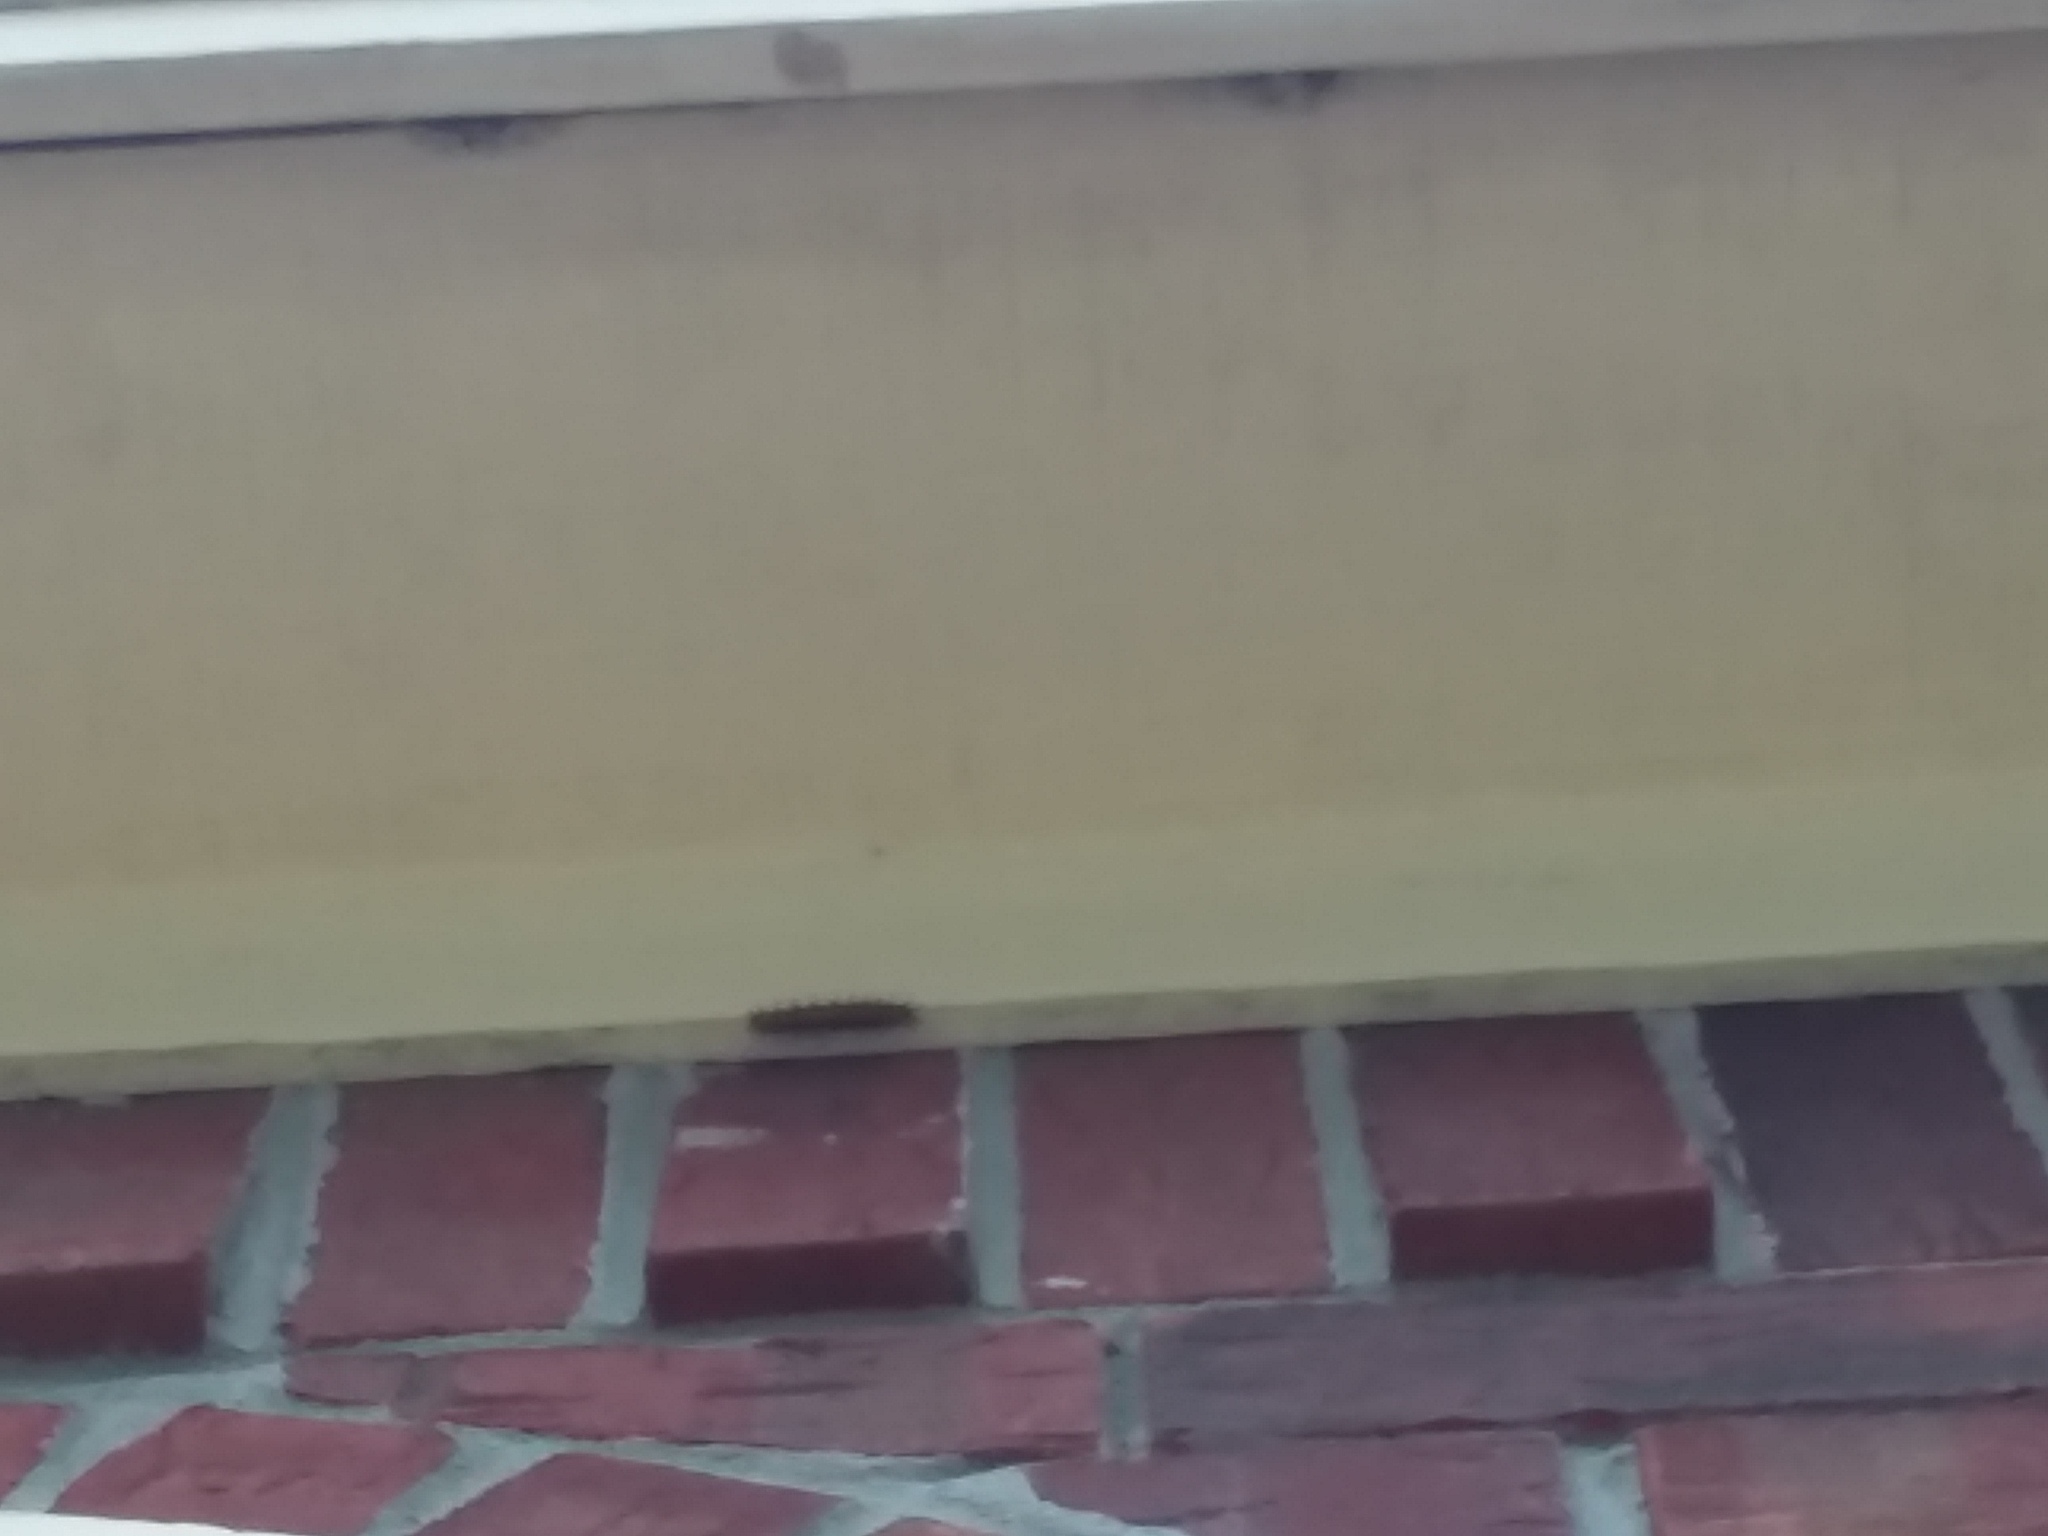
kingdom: Animalia
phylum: Arthropoda
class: Insecta
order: Lepidoptera
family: Nymphalidae
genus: Dione
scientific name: Dione vanillae
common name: Gulf fritillary
